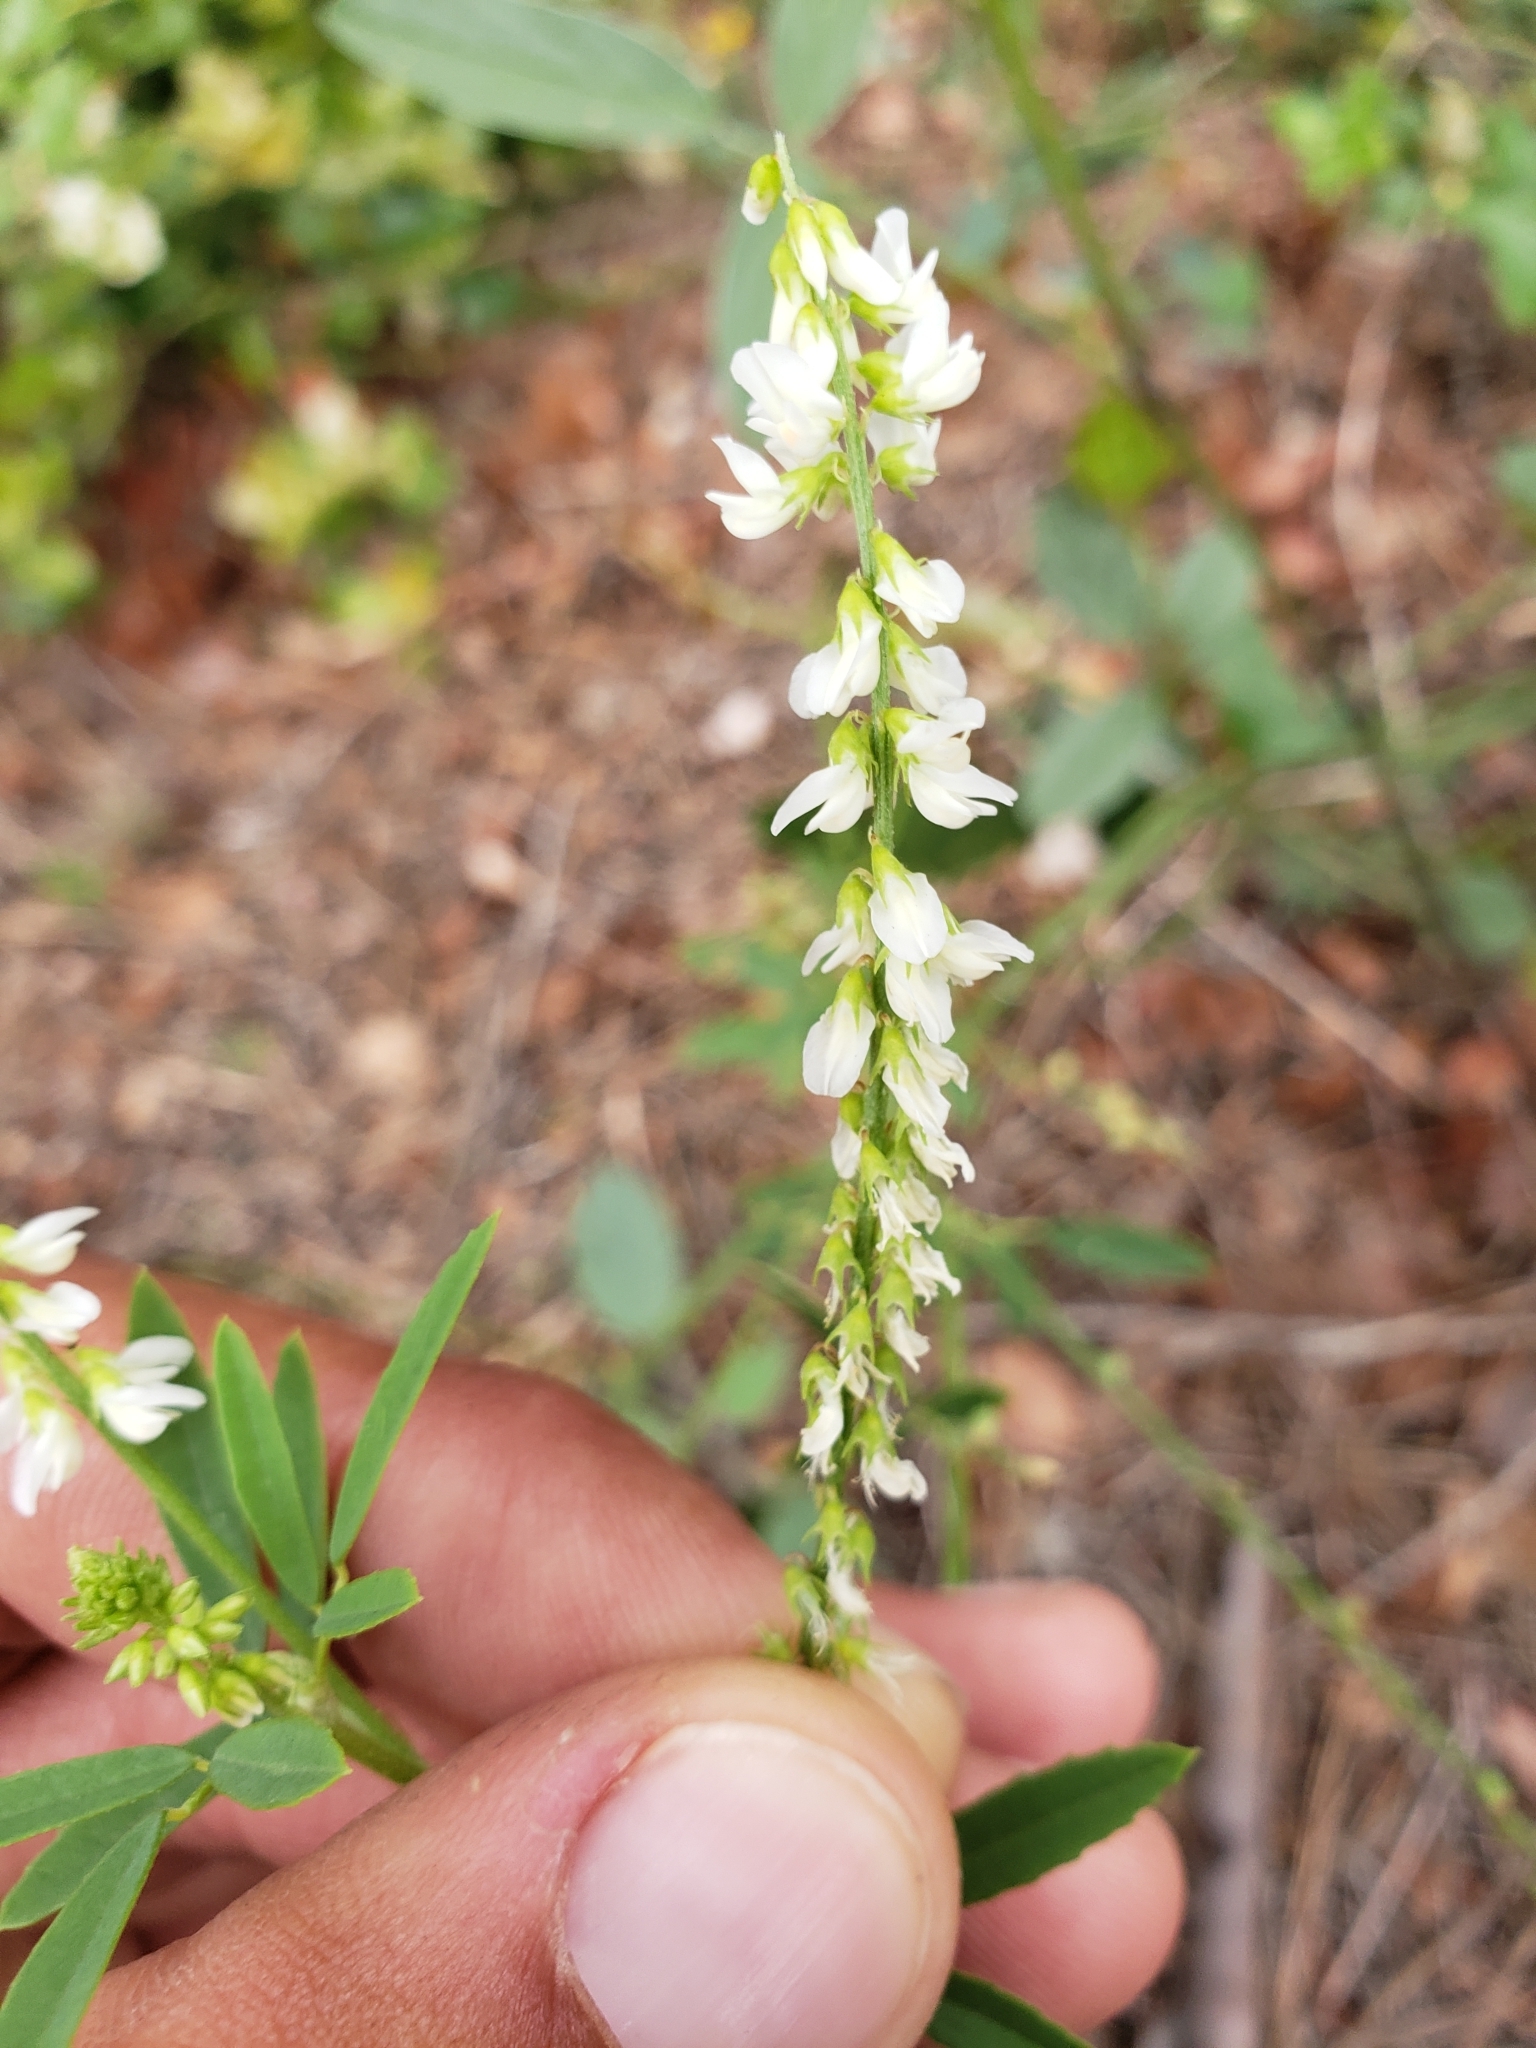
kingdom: Plantae
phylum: Tracheophyta
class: Magnoliopsida
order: Fabales
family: Fabaceae
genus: Melilotus
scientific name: Melilotus albus
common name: White melilot
